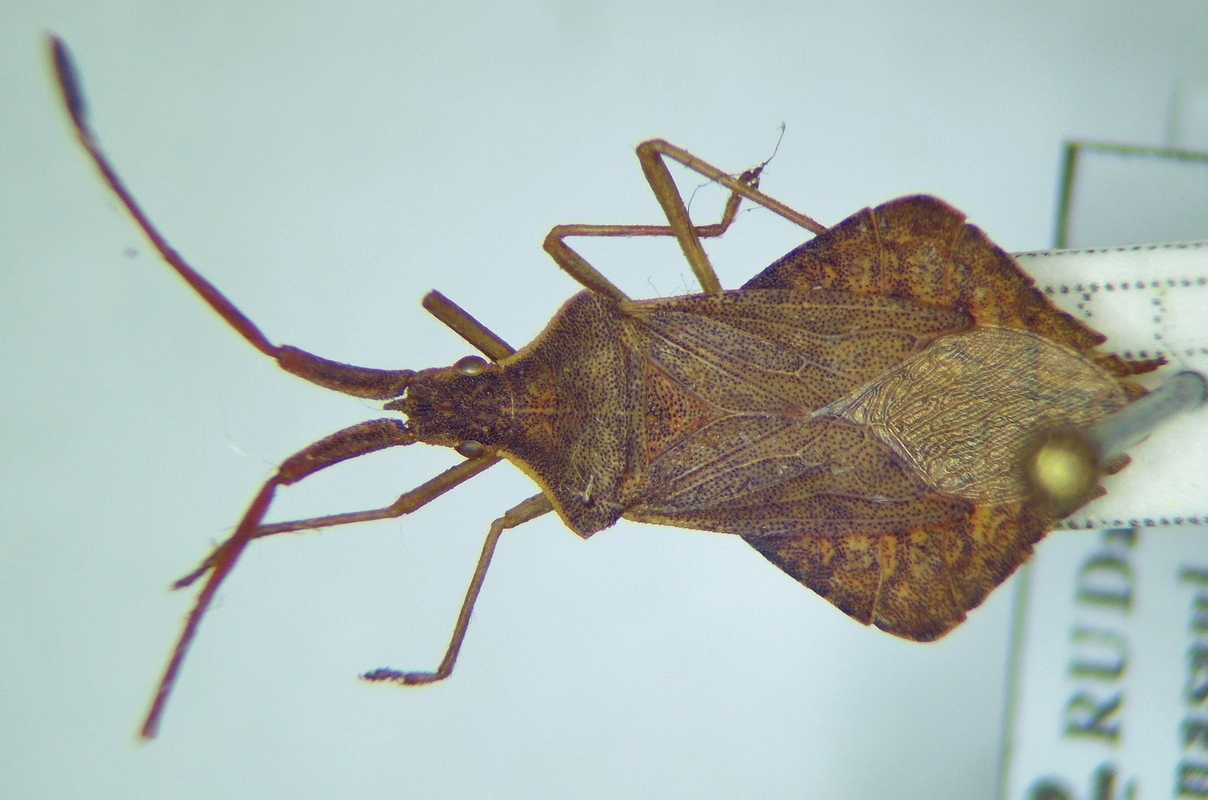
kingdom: Animalia
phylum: Arthropoda
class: Insecta
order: Hemiptera
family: Coreidae
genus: Syromastus
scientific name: Syromastus rhombeus
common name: Rhombic leatherbug
